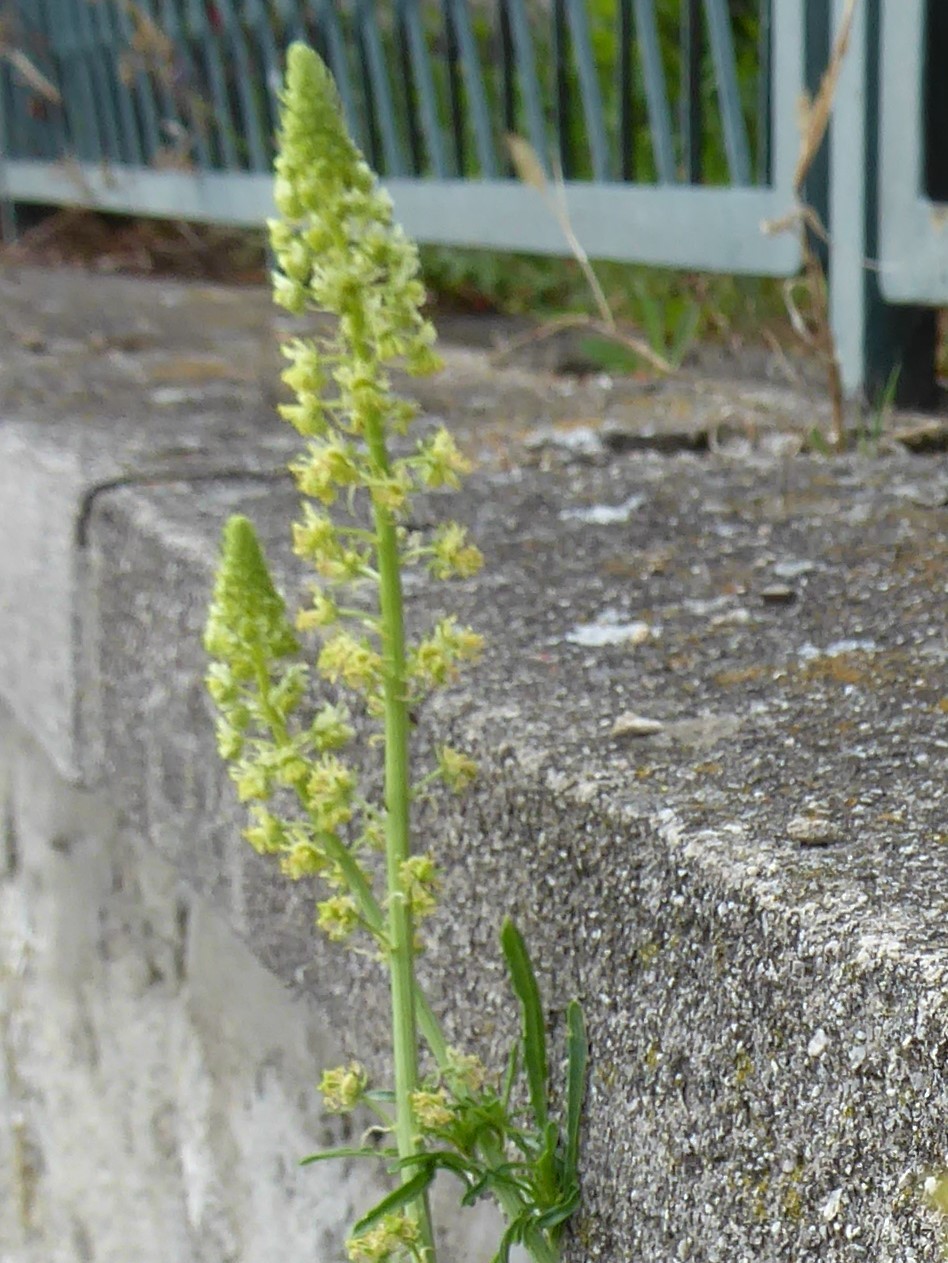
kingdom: Plantae
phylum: Tracheophyta
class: Magnoliopsida
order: Brassicales
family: Resedaceae
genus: Reseda
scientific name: Reseda lutea
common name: Wild mignonette
